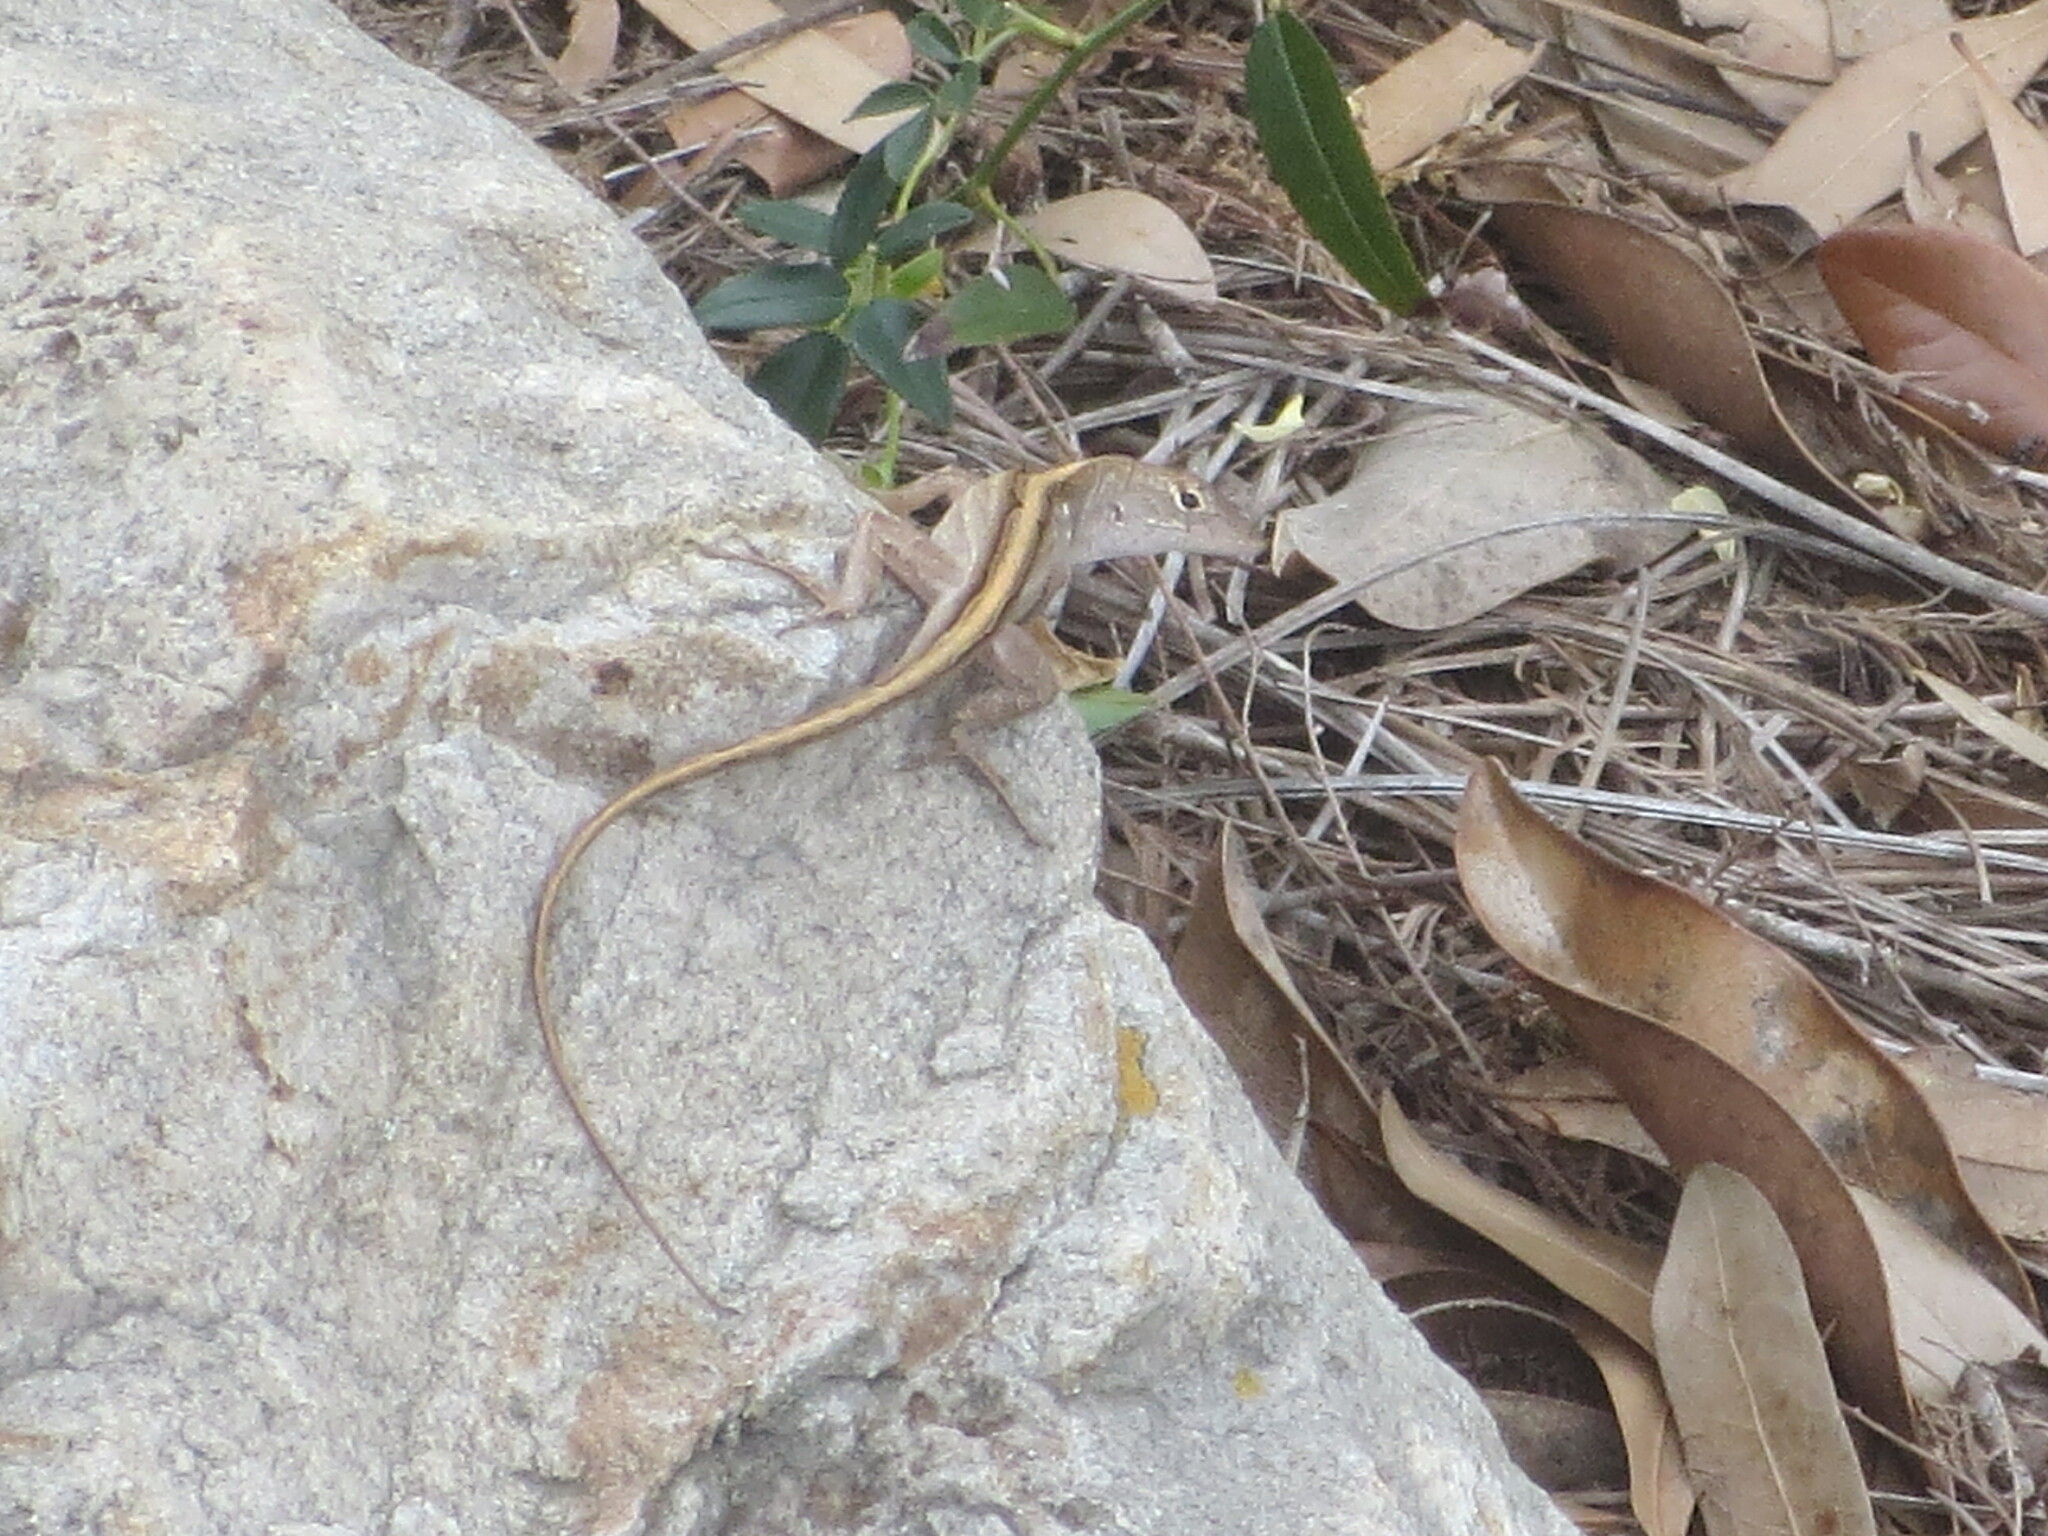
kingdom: Animalia
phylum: Chordata
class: Squamata
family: Dactyloidae
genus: Anolis
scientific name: Anolis sagrei
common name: Brown anole
